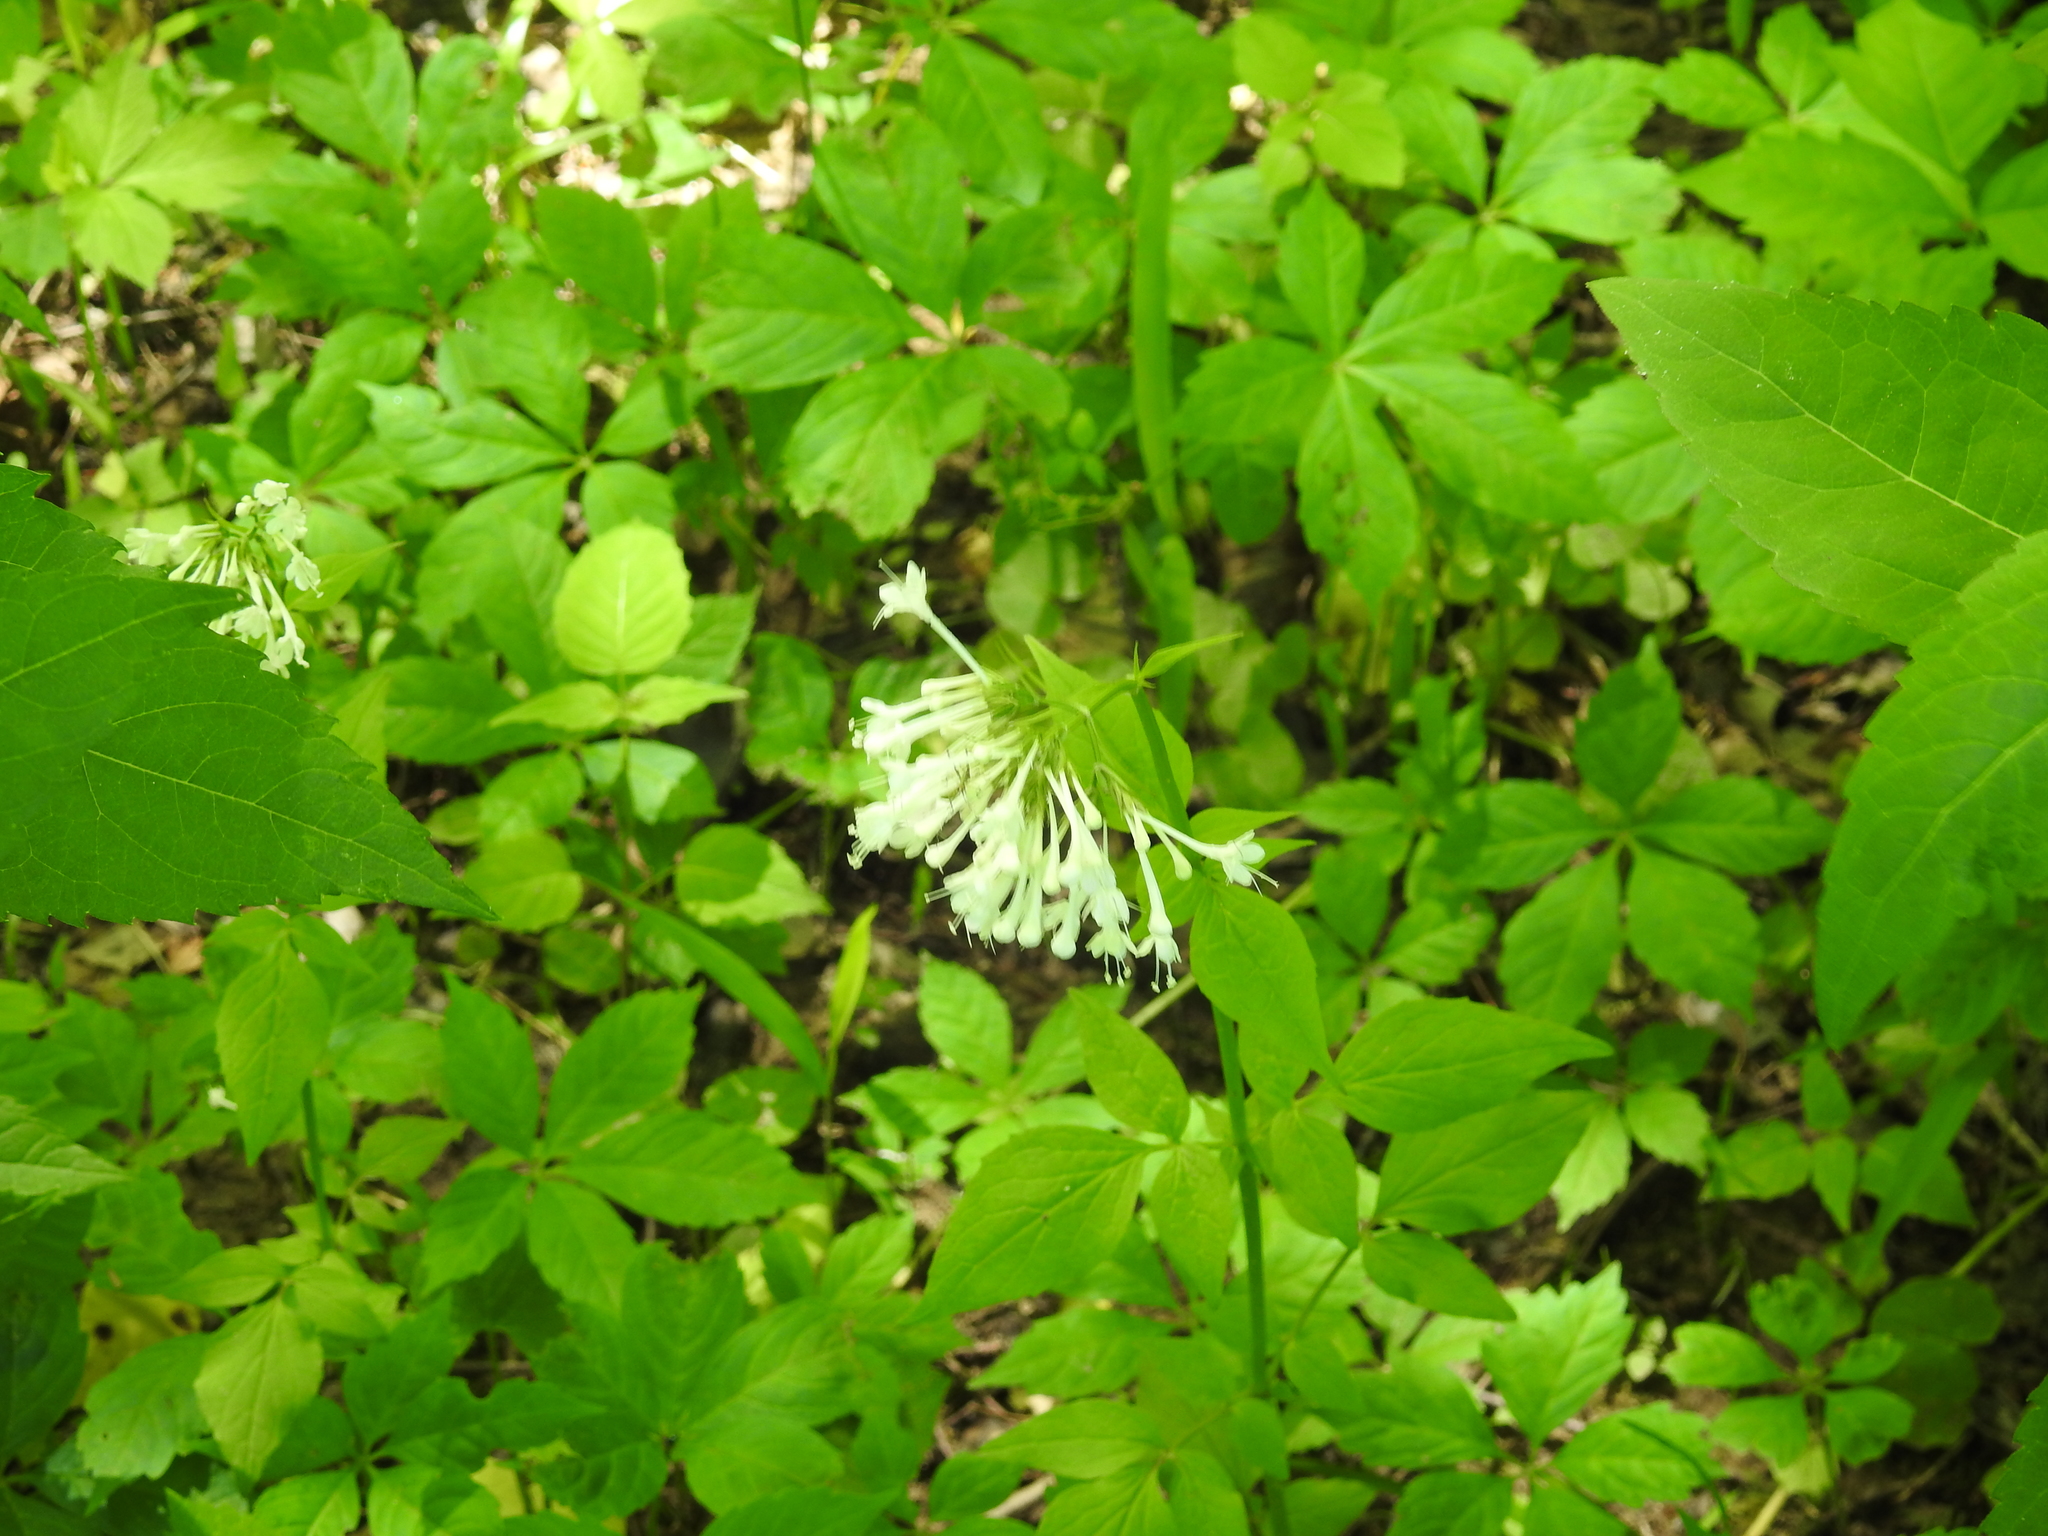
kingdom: Plantae
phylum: Tracheophyta
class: Magnoliopsida
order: Dipsacales
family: Caprifoliaceae
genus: Valeriana
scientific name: Valeriana pauciflora
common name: Long-tube valeriana
